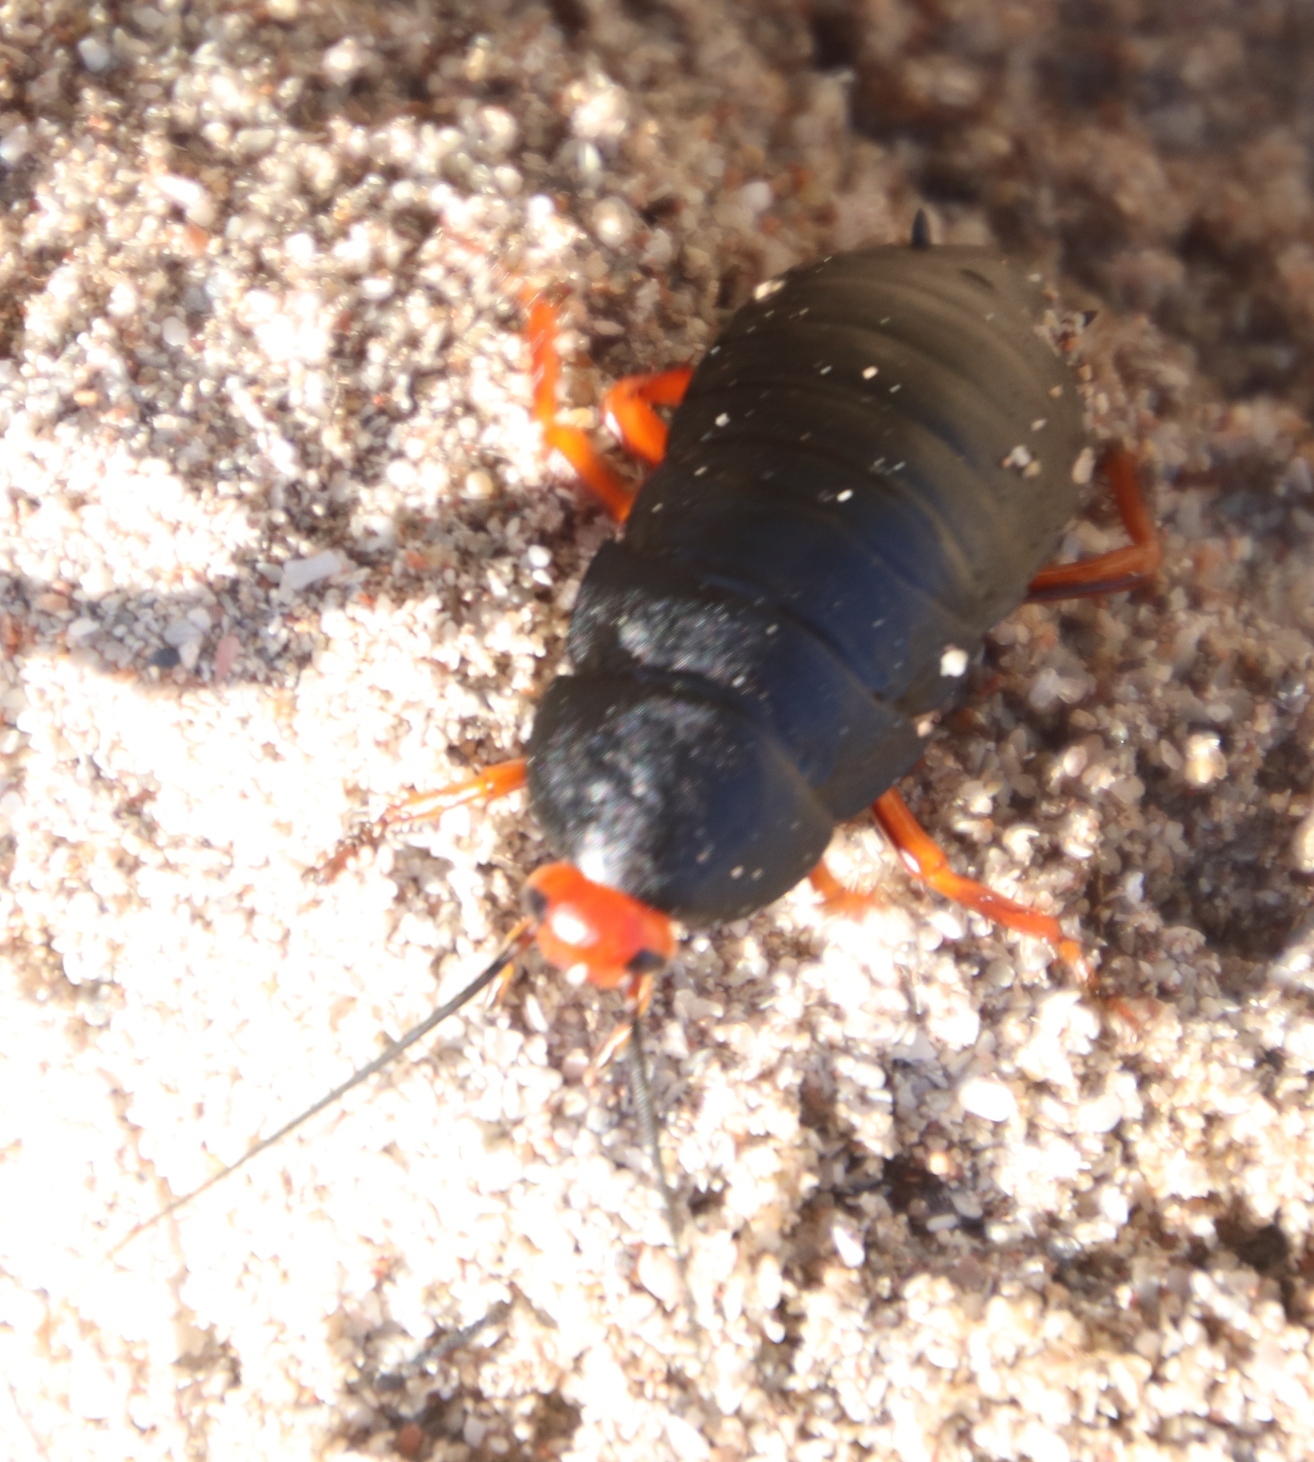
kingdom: Animalia
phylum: Arthropoda
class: Insecta
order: Blattodea
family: Blattidae
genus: Deropeltis
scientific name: Deropeltis erythrocephala
